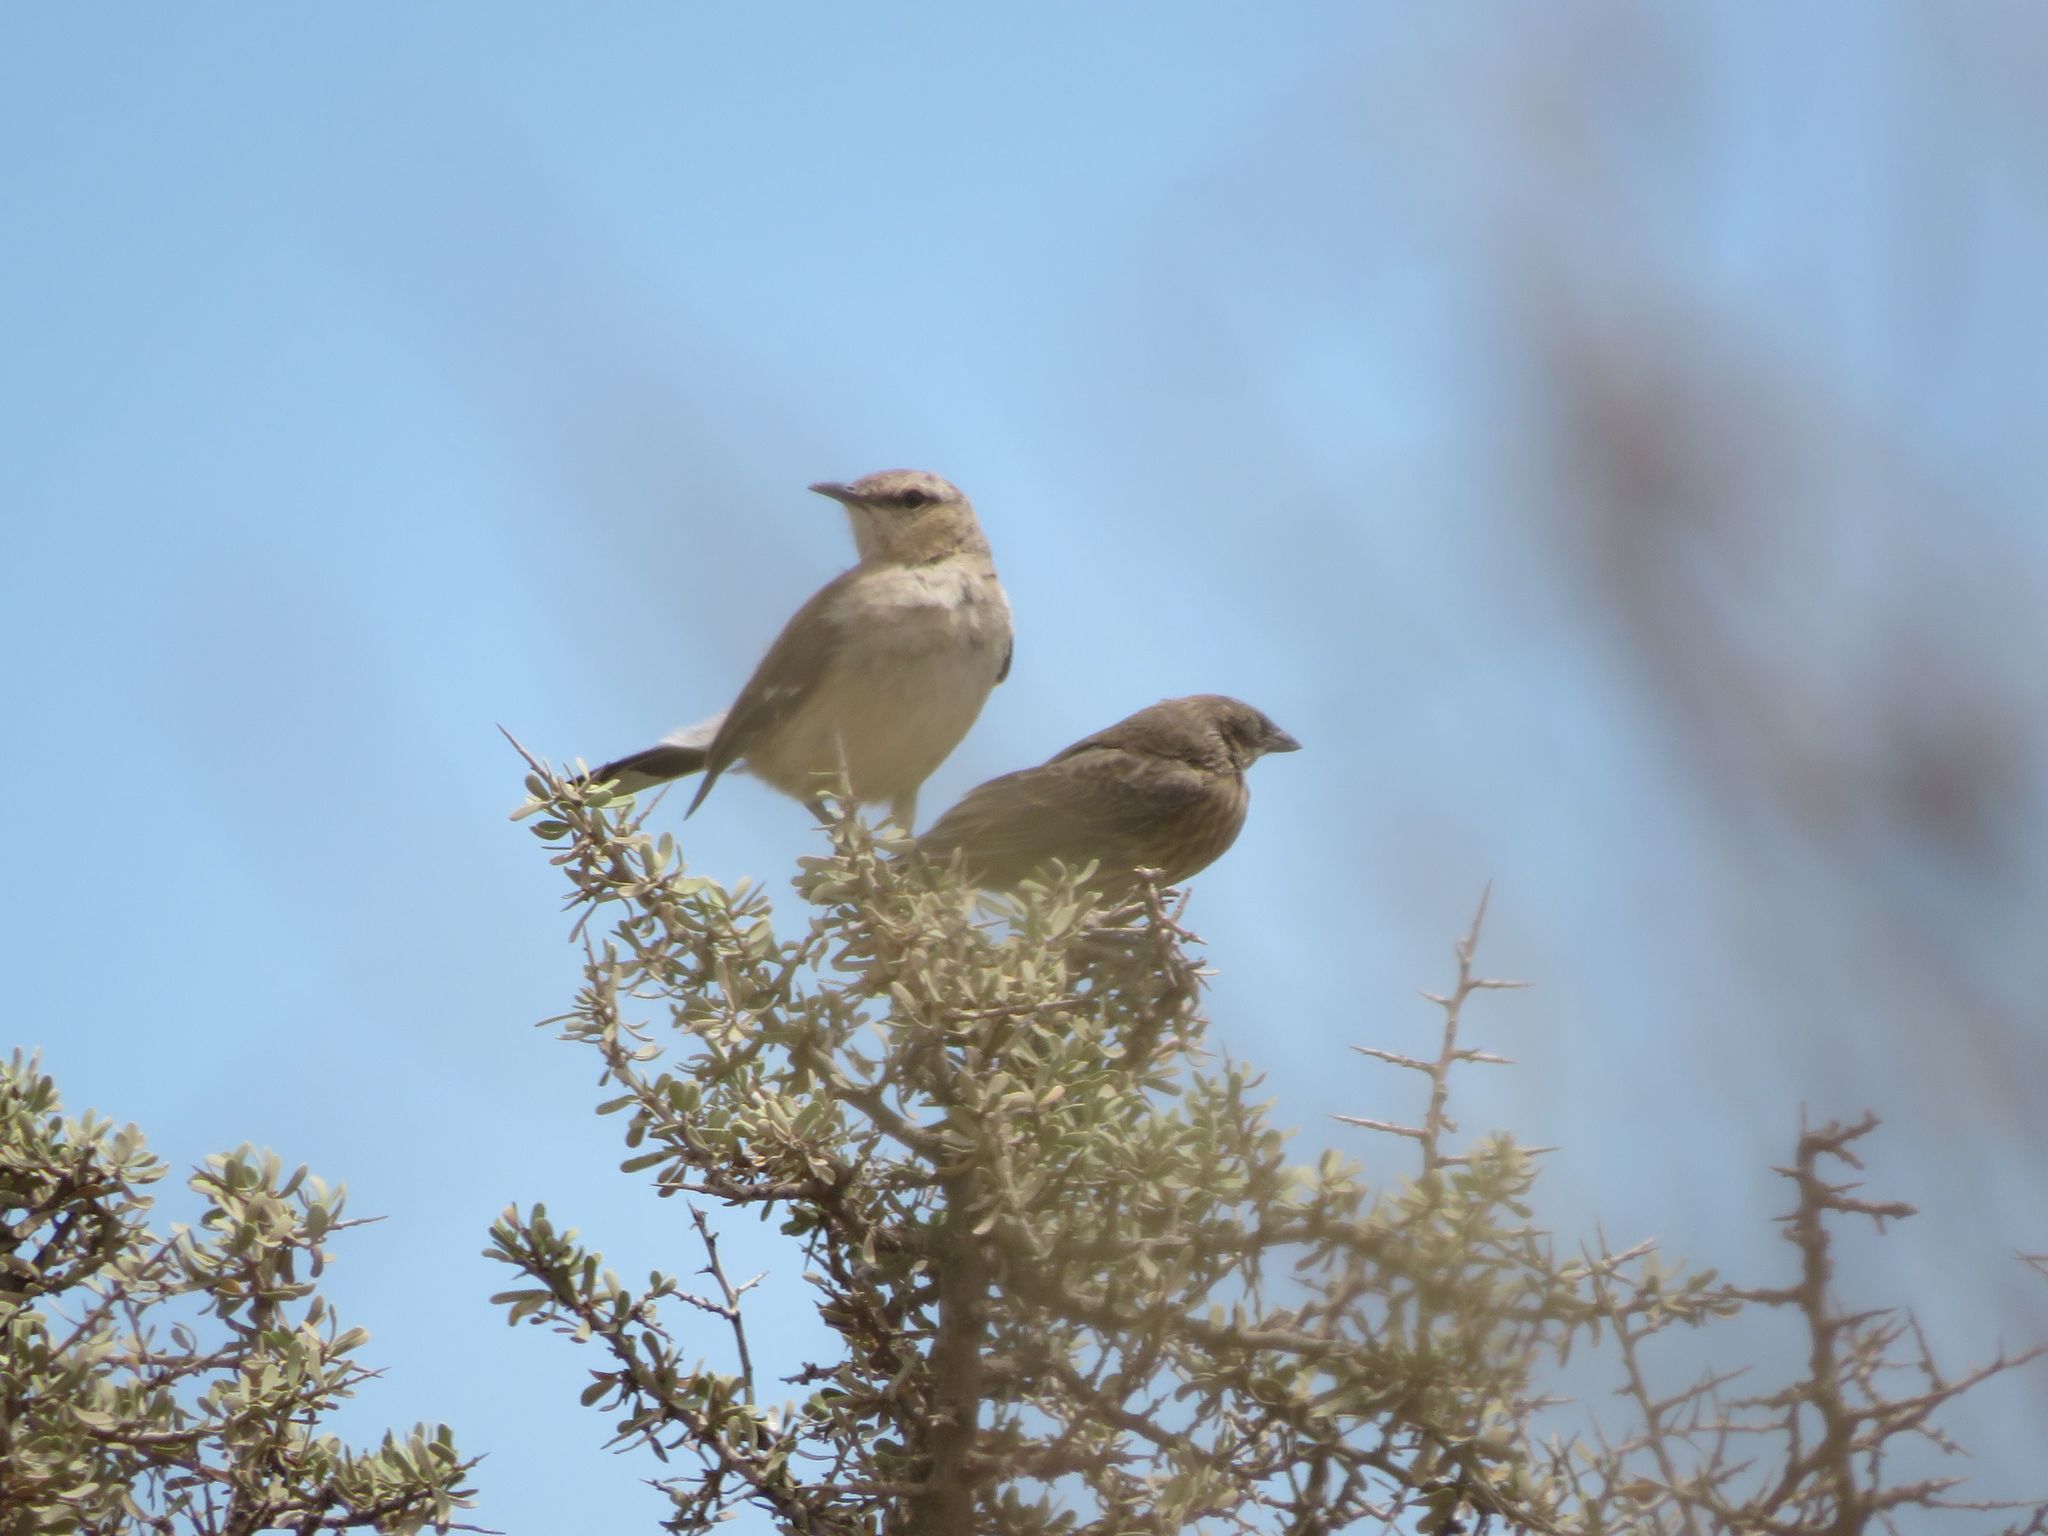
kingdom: Animalia
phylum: Chordata
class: Aves
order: Passeriformes
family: Mimidae
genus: Mimus
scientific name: Mimus patagonicus
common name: Patagonian mockingbird
